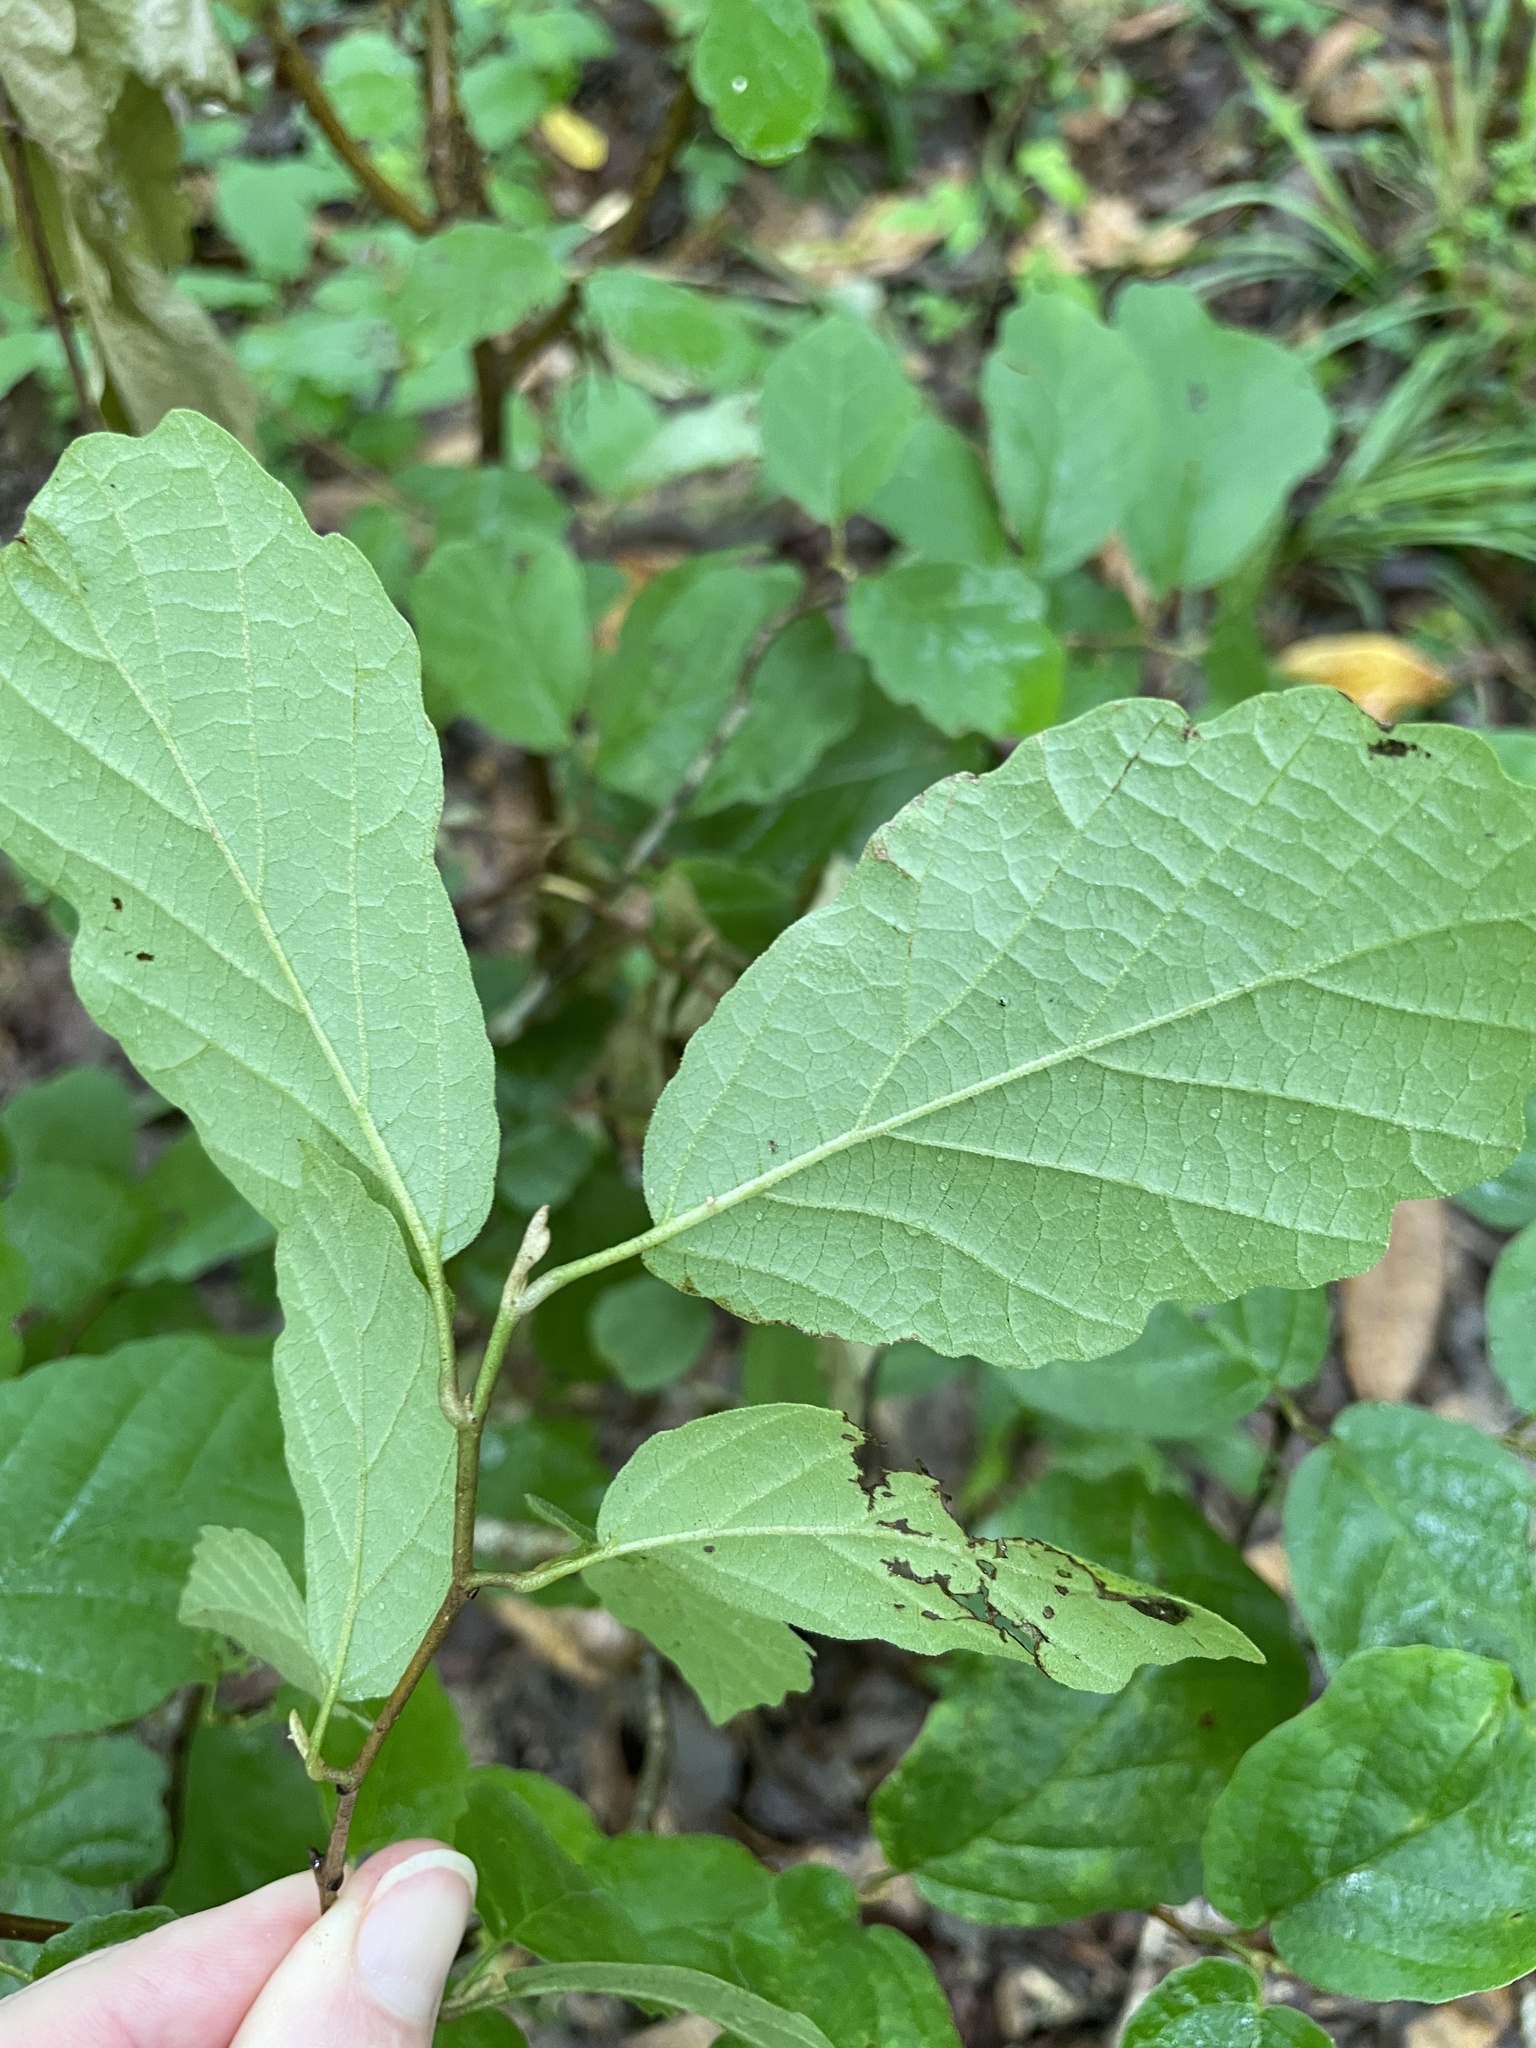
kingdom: Plantae
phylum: Tracheophyta
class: Magnoliopsida
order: Saxifragales
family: Hamamelidaceae
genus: Hamamelis
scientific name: Hamamelis virginiana
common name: Witch-hazel
